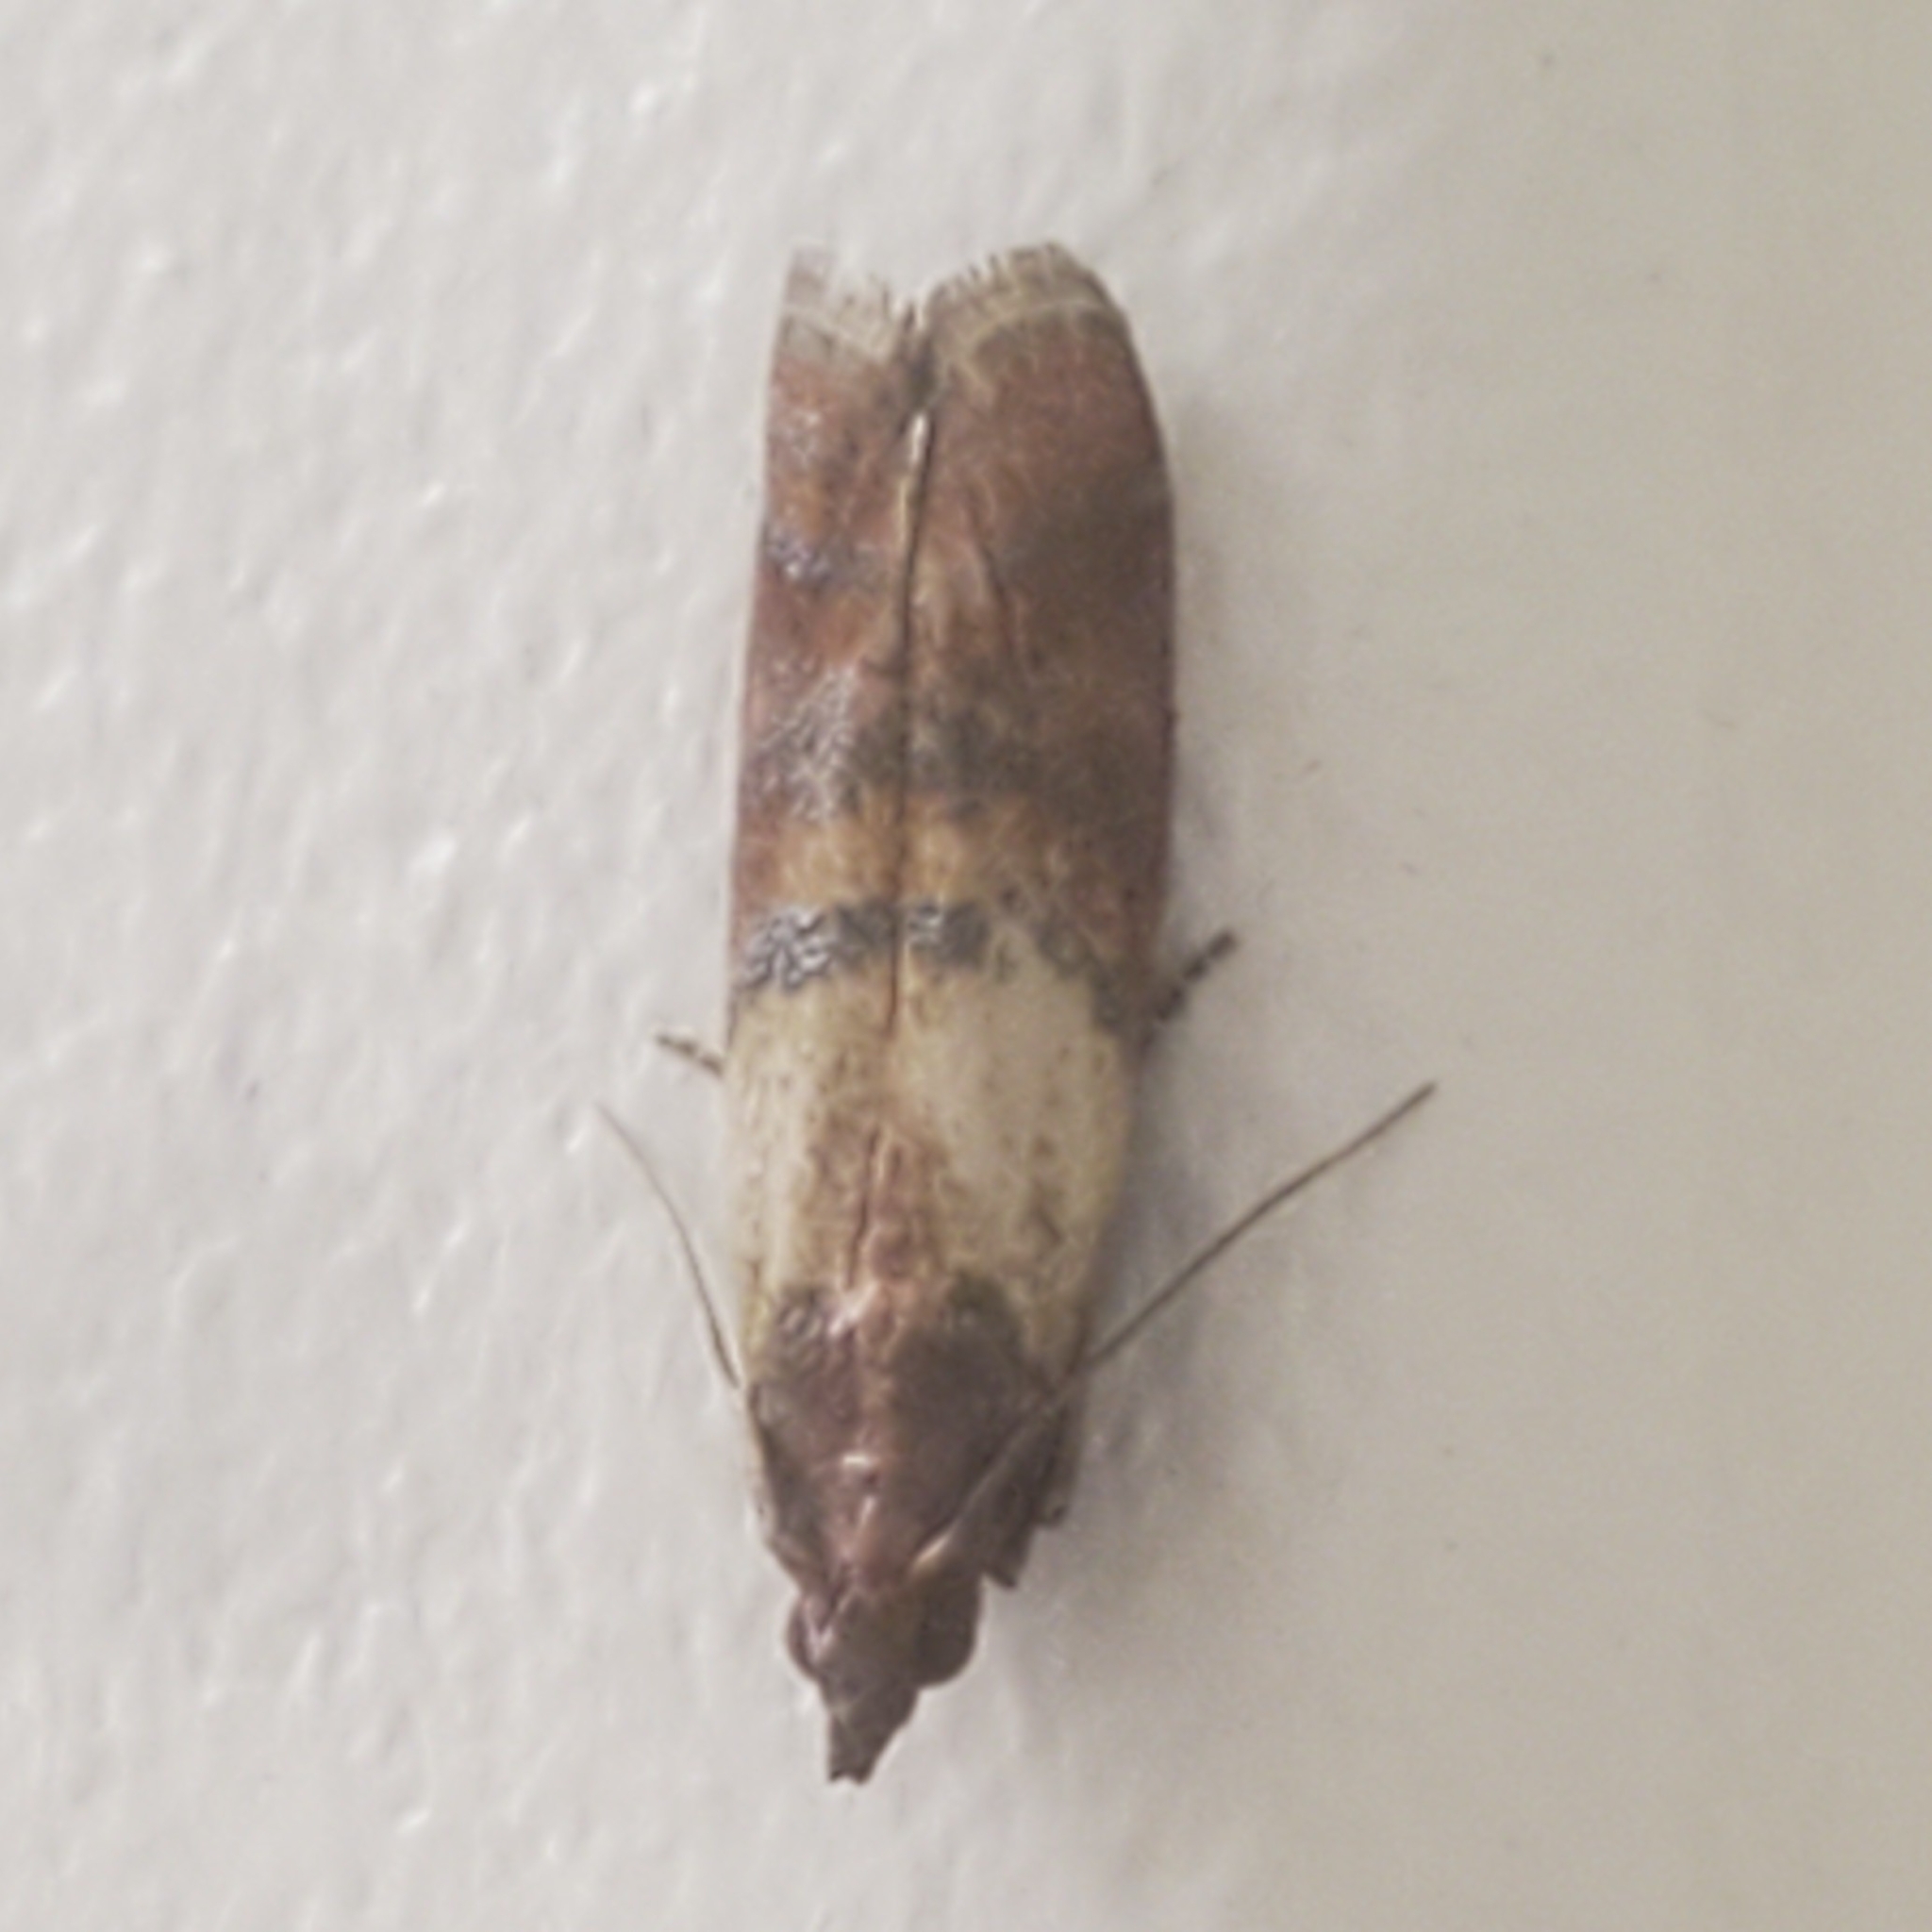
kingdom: Animalia
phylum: Arthropoda
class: Insecta
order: Lepidoptera
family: Pyralidae
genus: Plodia
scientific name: Plodia interpunctella
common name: Indian meal moth
